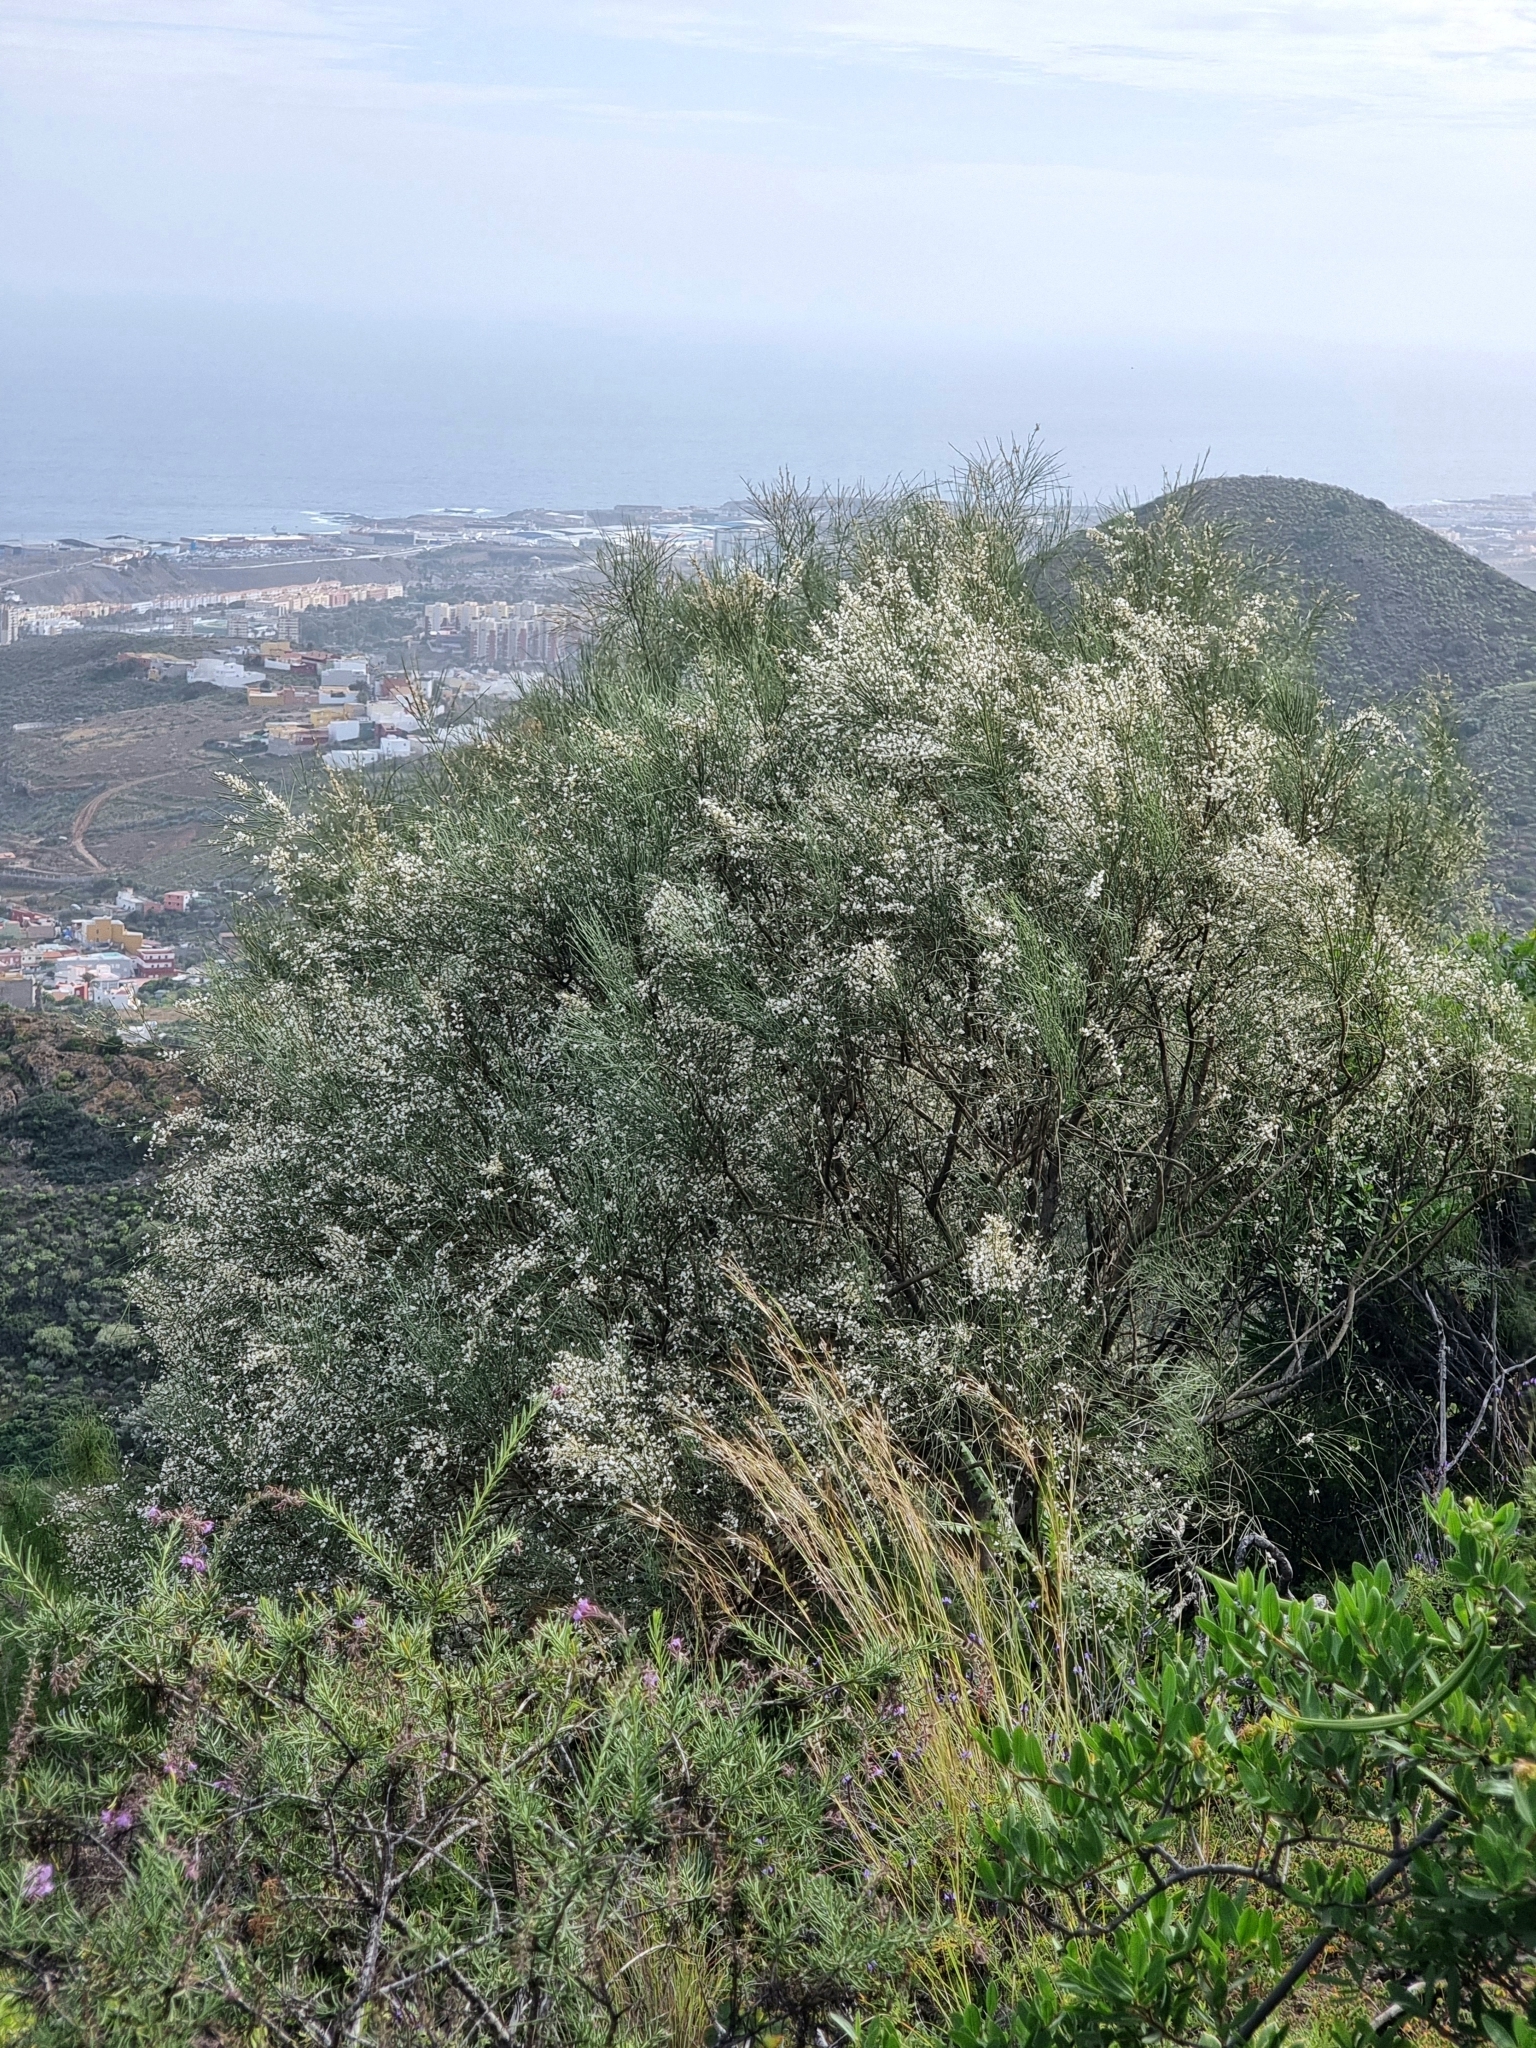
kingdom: Plantae
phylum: Tracheophyta
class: Magnoliopsida
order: Fabales
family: Fabaceae
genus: Retama
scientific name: Retama rhodorhizoides
